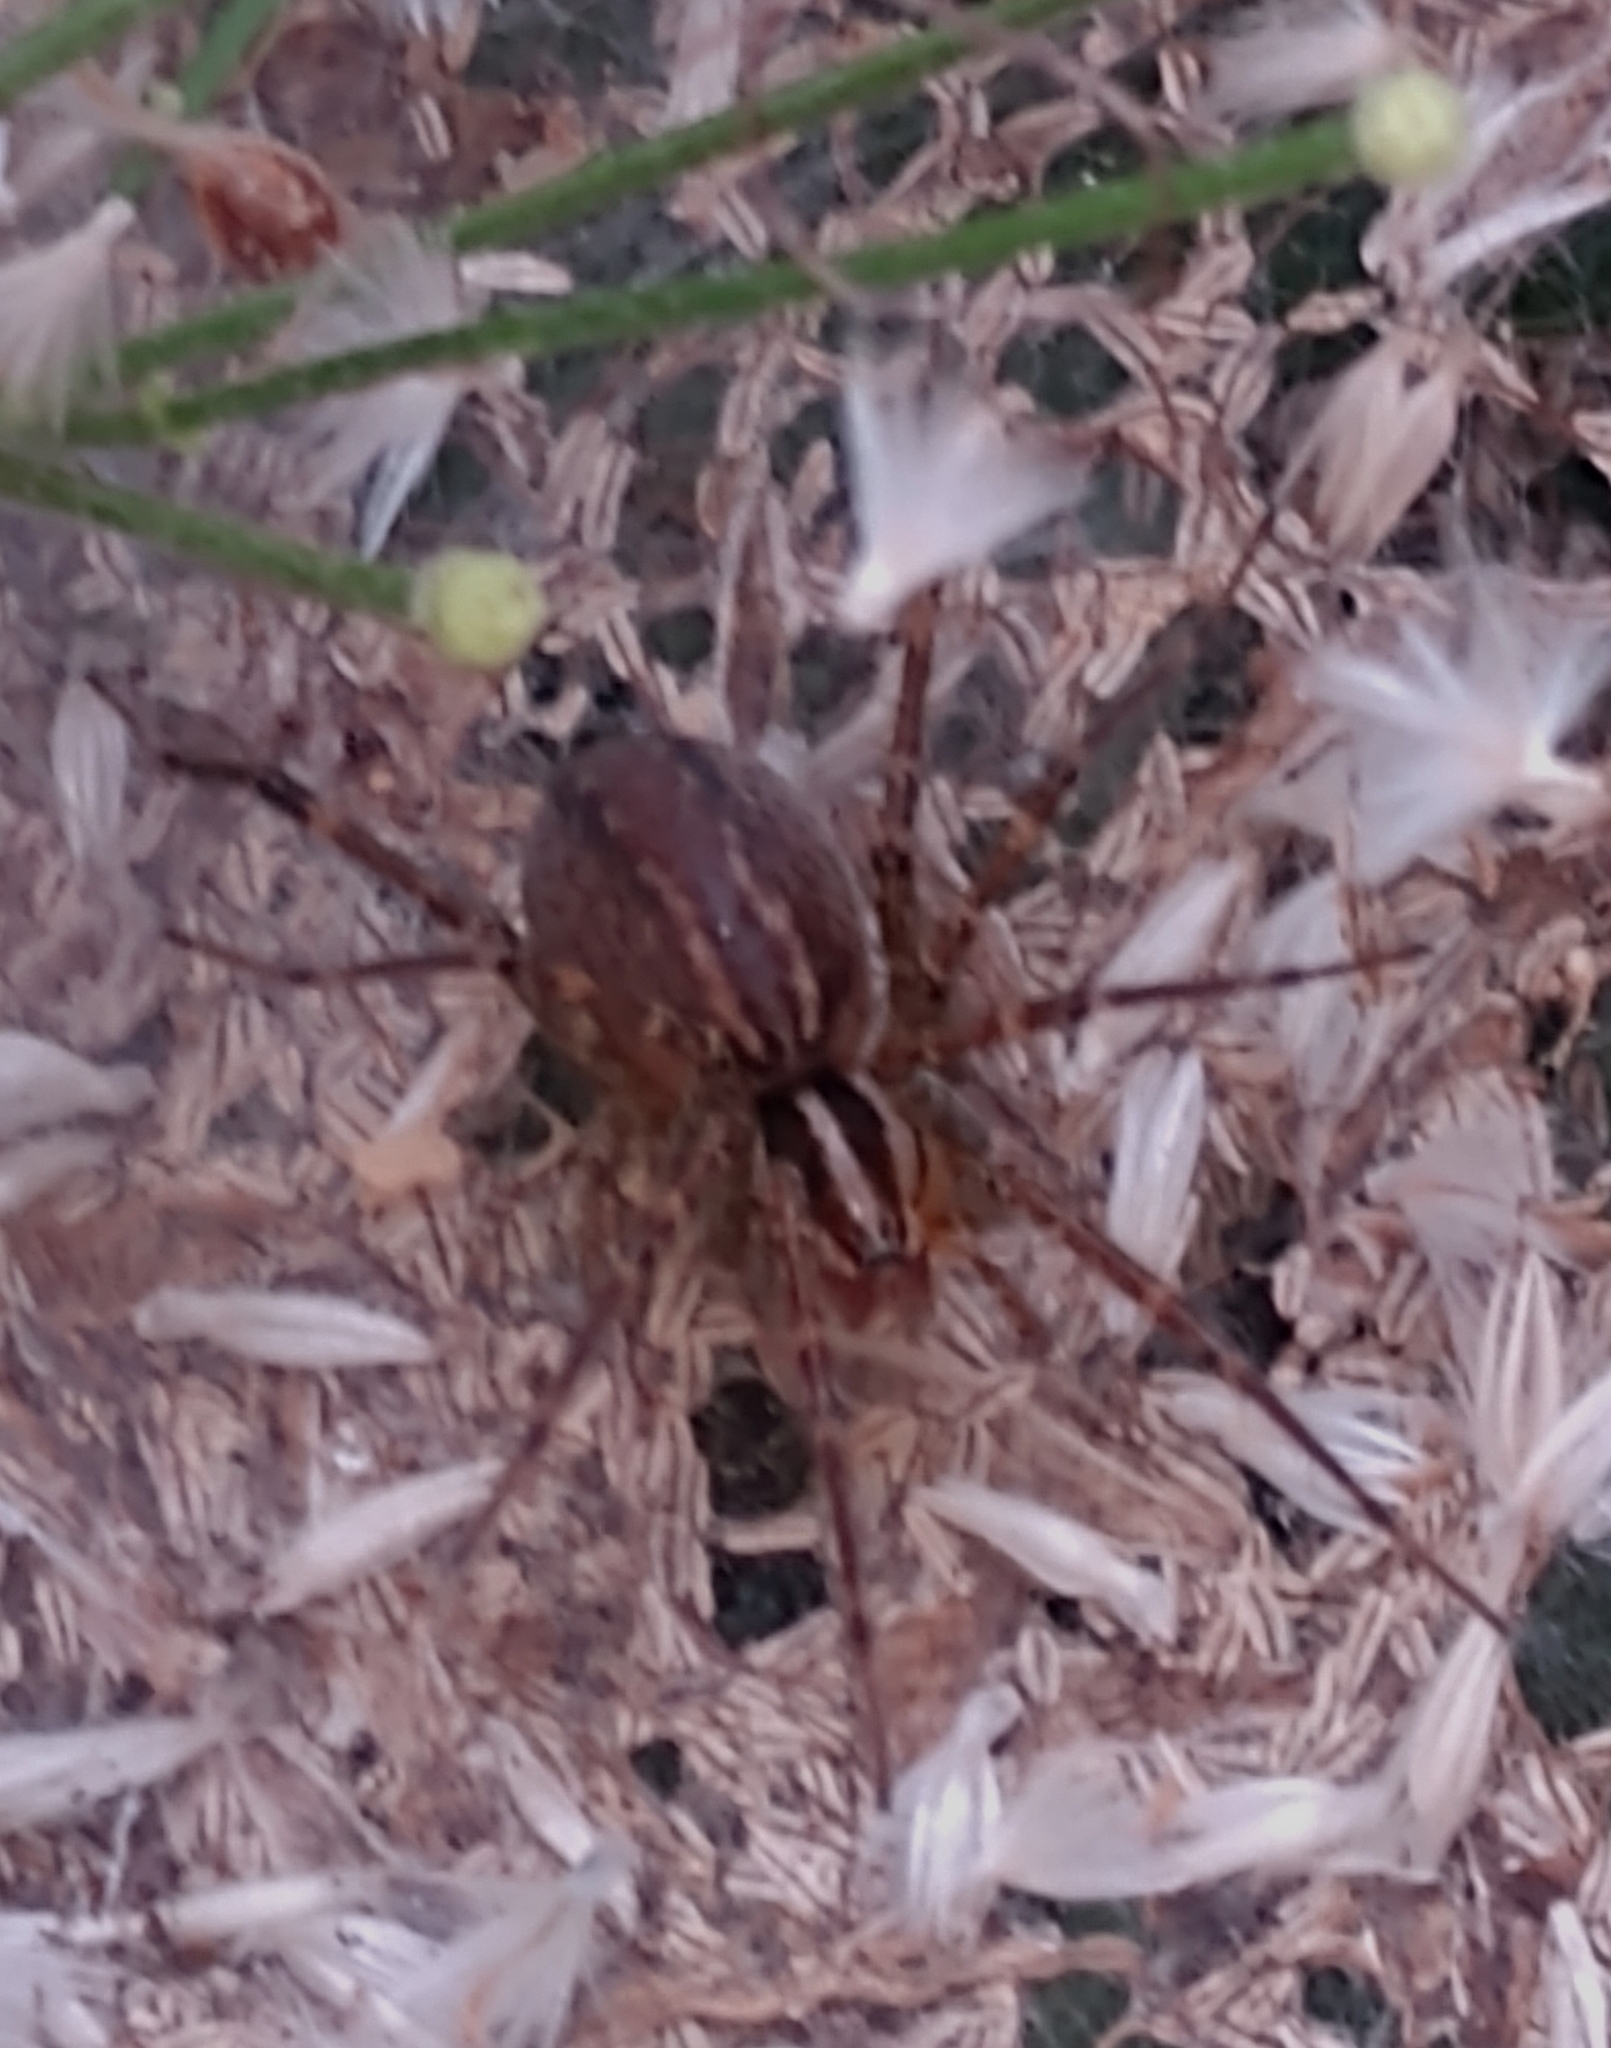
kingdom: Animalia
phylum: Arthropoda
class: Arachnida
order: Araneae
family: Agelenidae
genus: Agelenopsis
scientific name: Agelenopsis
